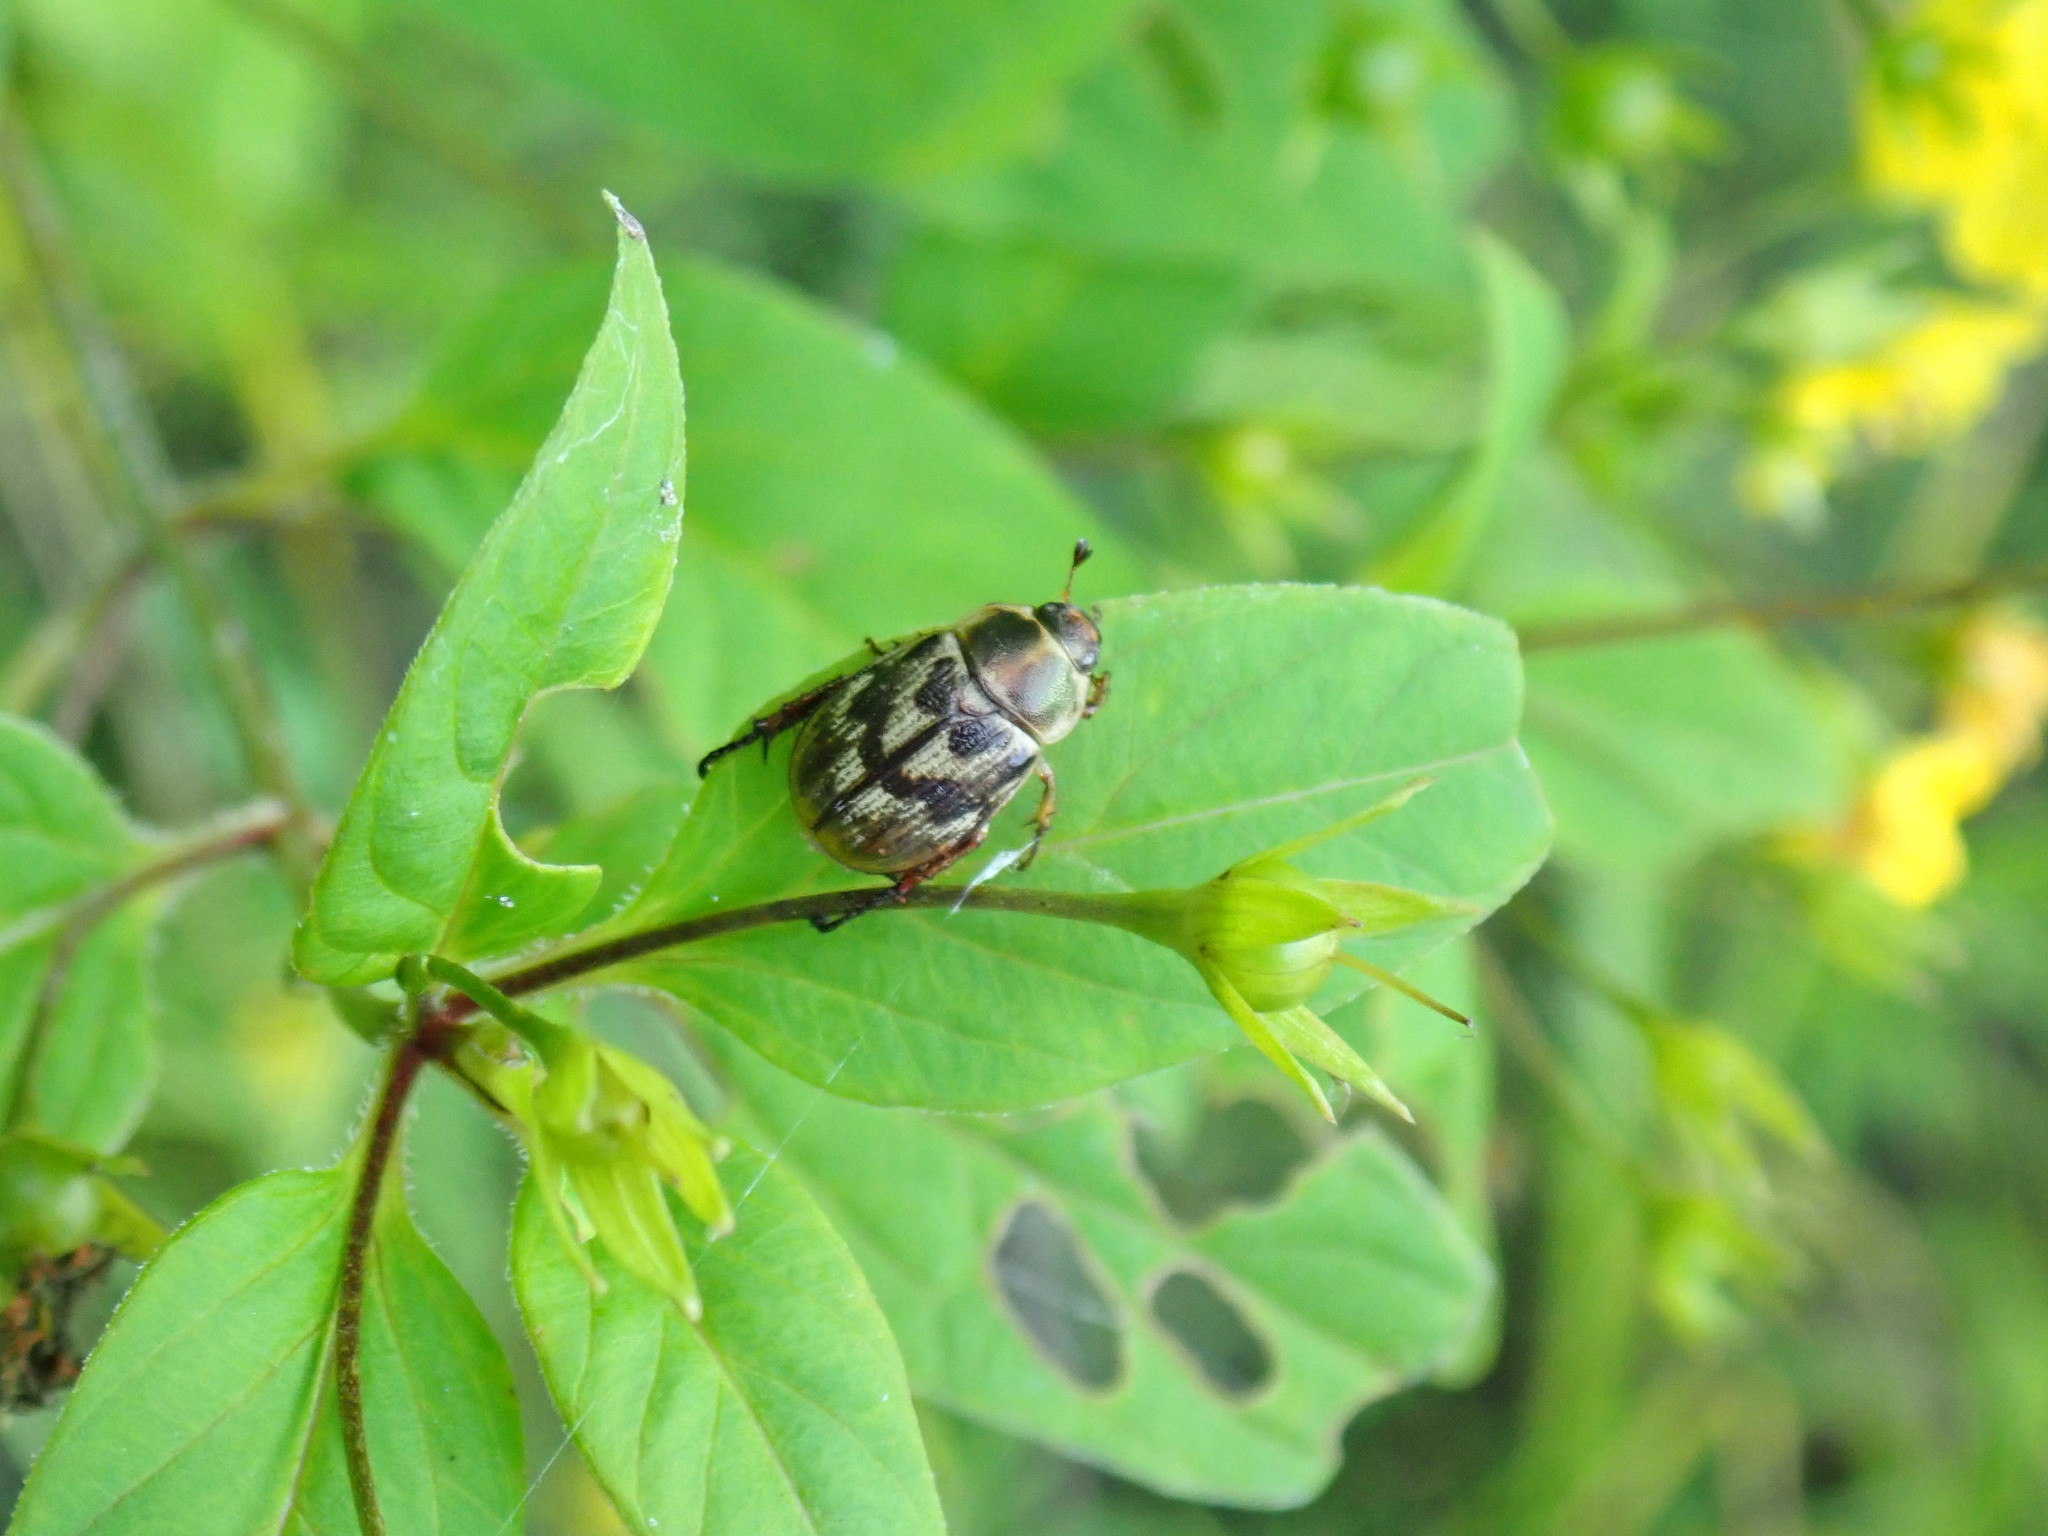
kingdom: Animalia
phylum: Arthropoda
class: Insecta
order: Coleoptera
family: Scarabaeidae
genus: Exomala
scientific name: Exomala orientalis
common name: Oriental beetle
